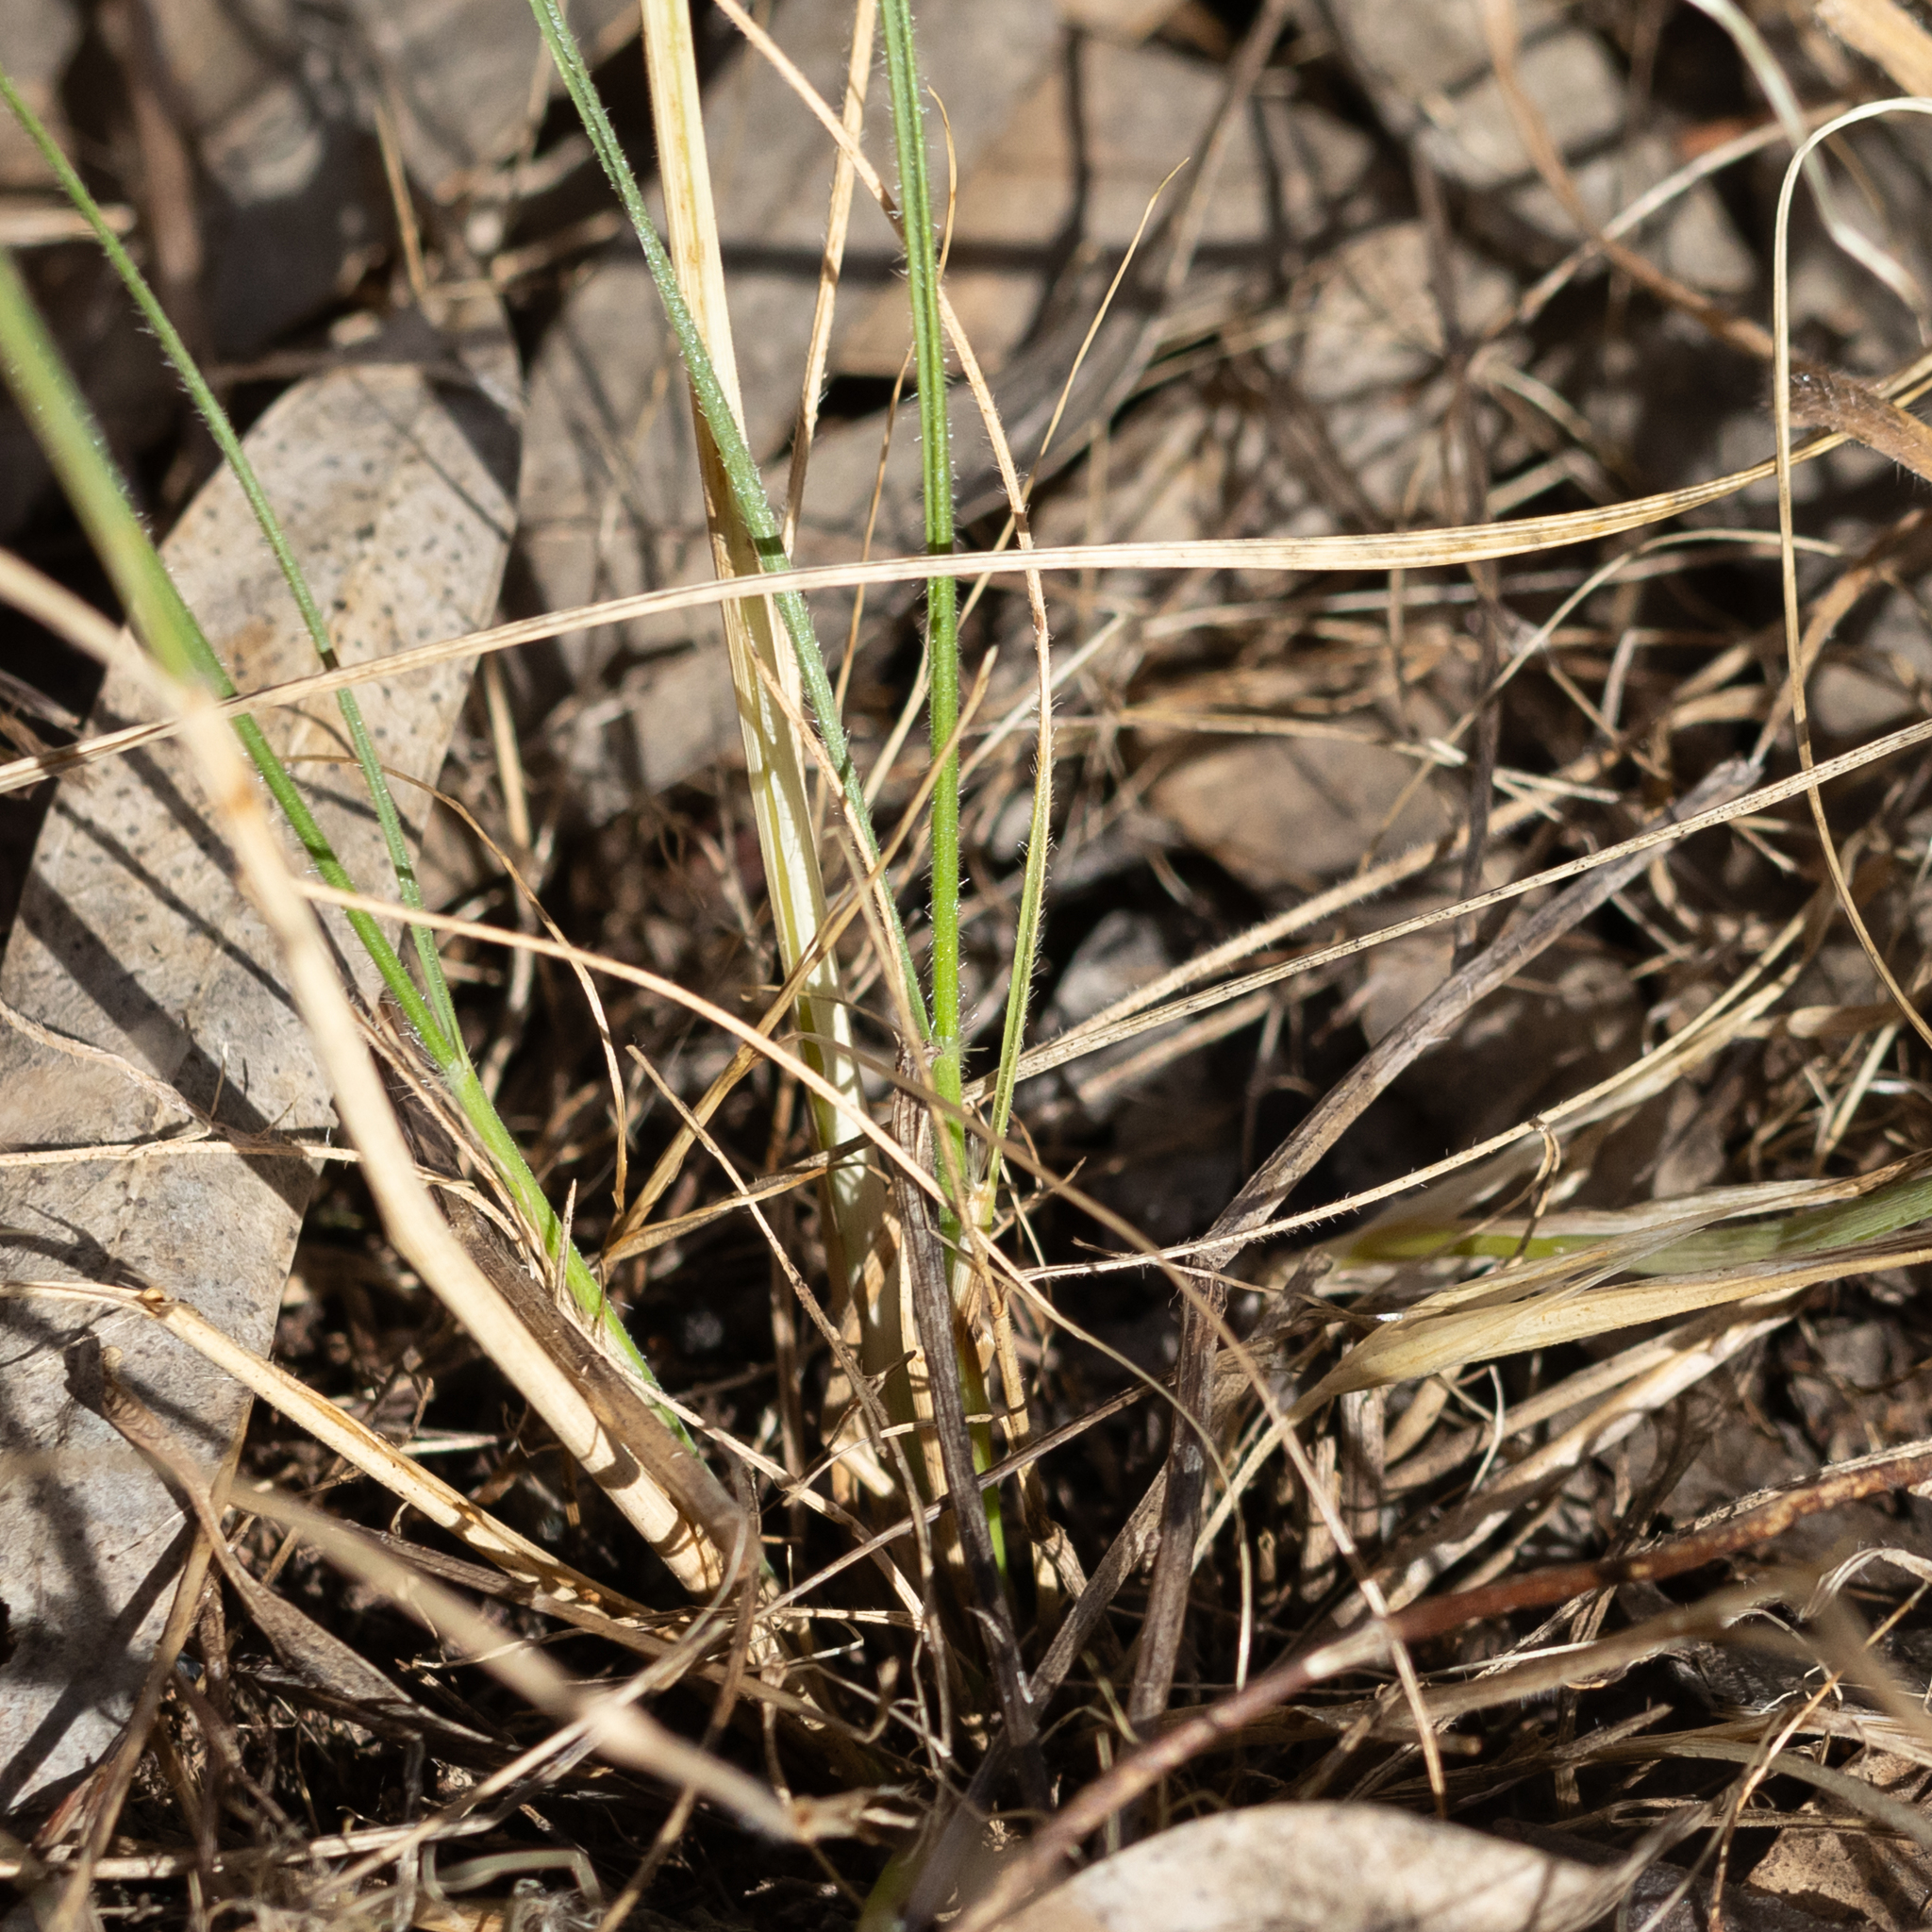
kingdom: Plantae
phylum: Tracheophyta
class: Liliopsida
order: Poales
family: Poaceae
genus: Austrostipa
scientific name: Austrostipa scabra
